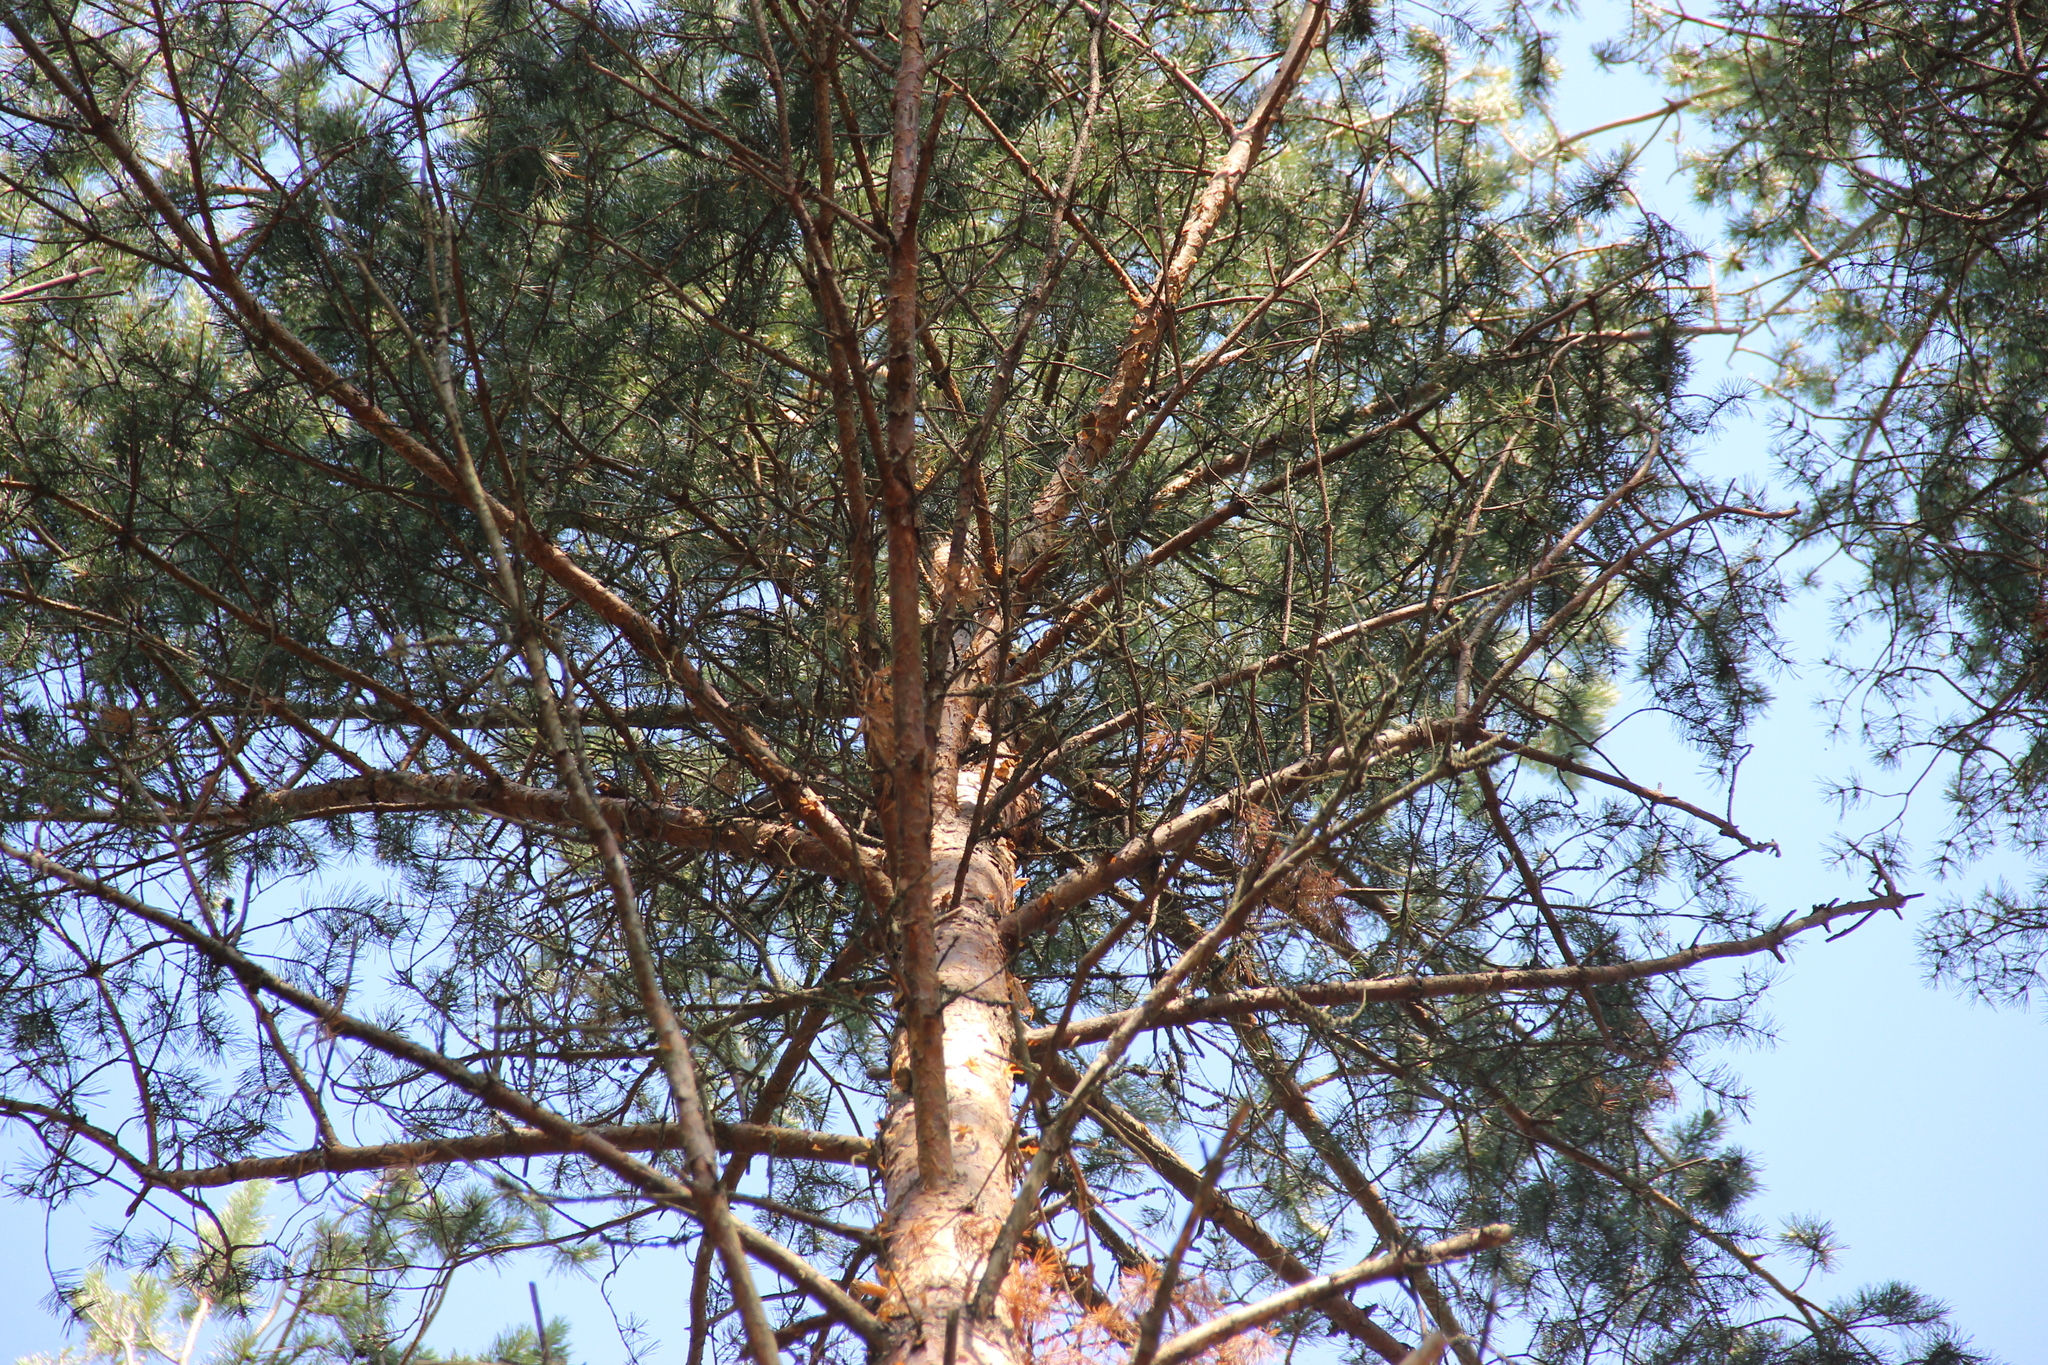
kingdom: Plantae
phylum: Tracheophyta
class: Pinopsida
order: Pinales
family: Pinaceae
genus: Pinus
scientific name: Pinus sylvestris
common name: Scots pine
